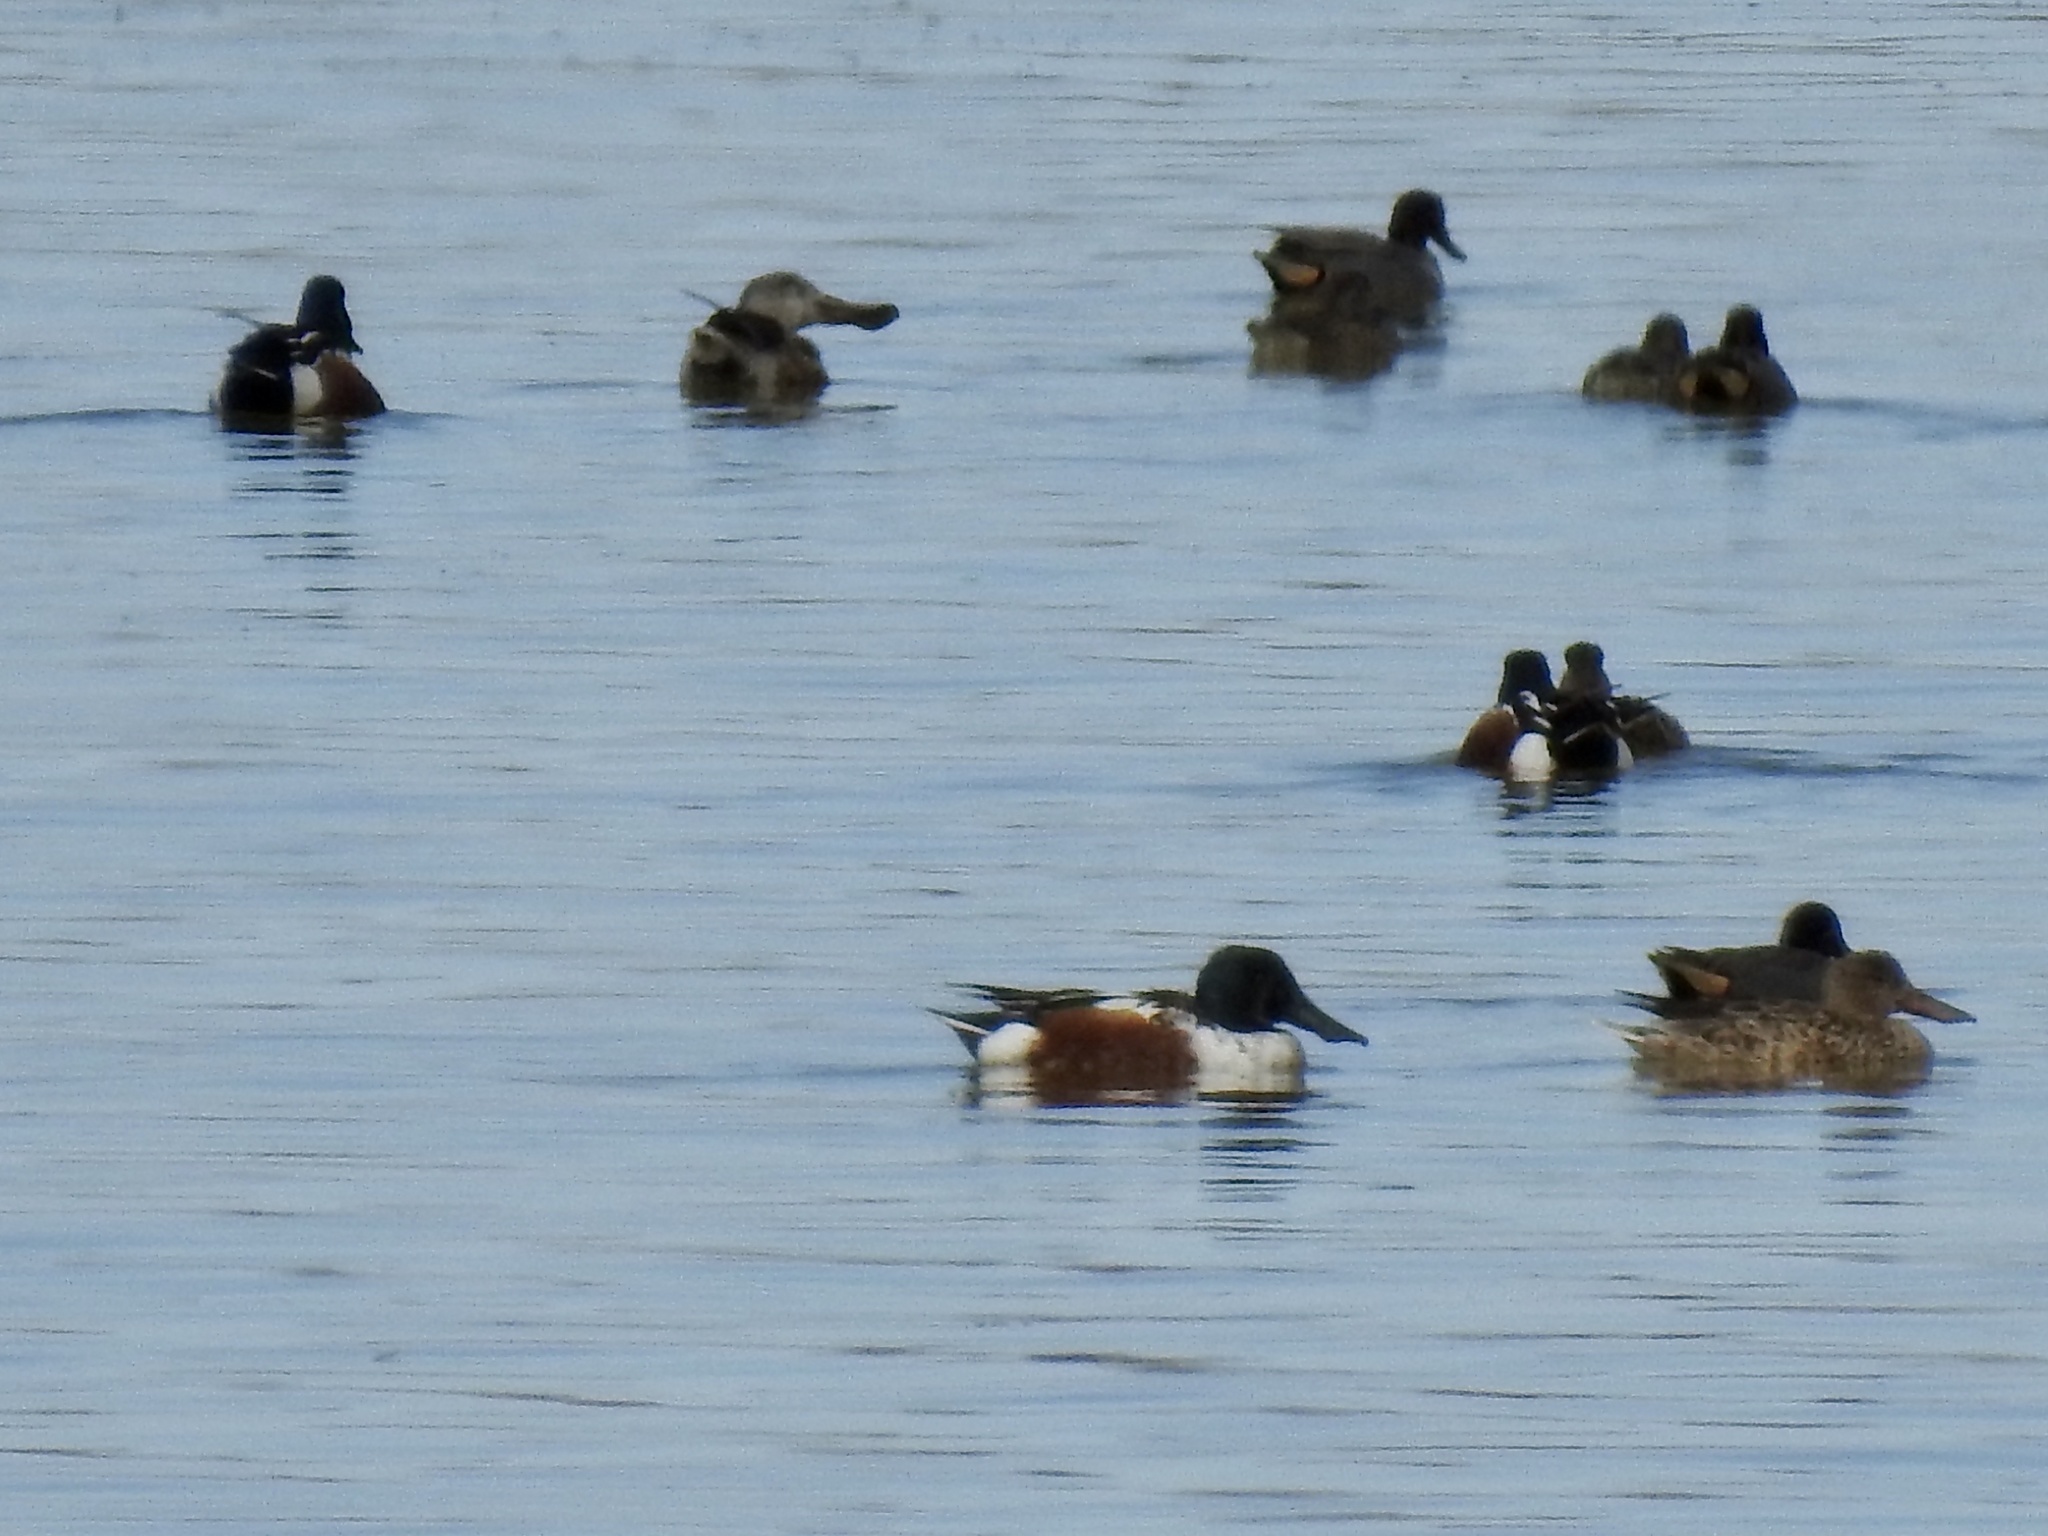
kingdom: Animalia
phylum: Chordata
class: Aves
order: Anseriformes
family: Anatidae
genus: Spatula
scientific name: Spatula clypeata
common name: Northern shoveler
